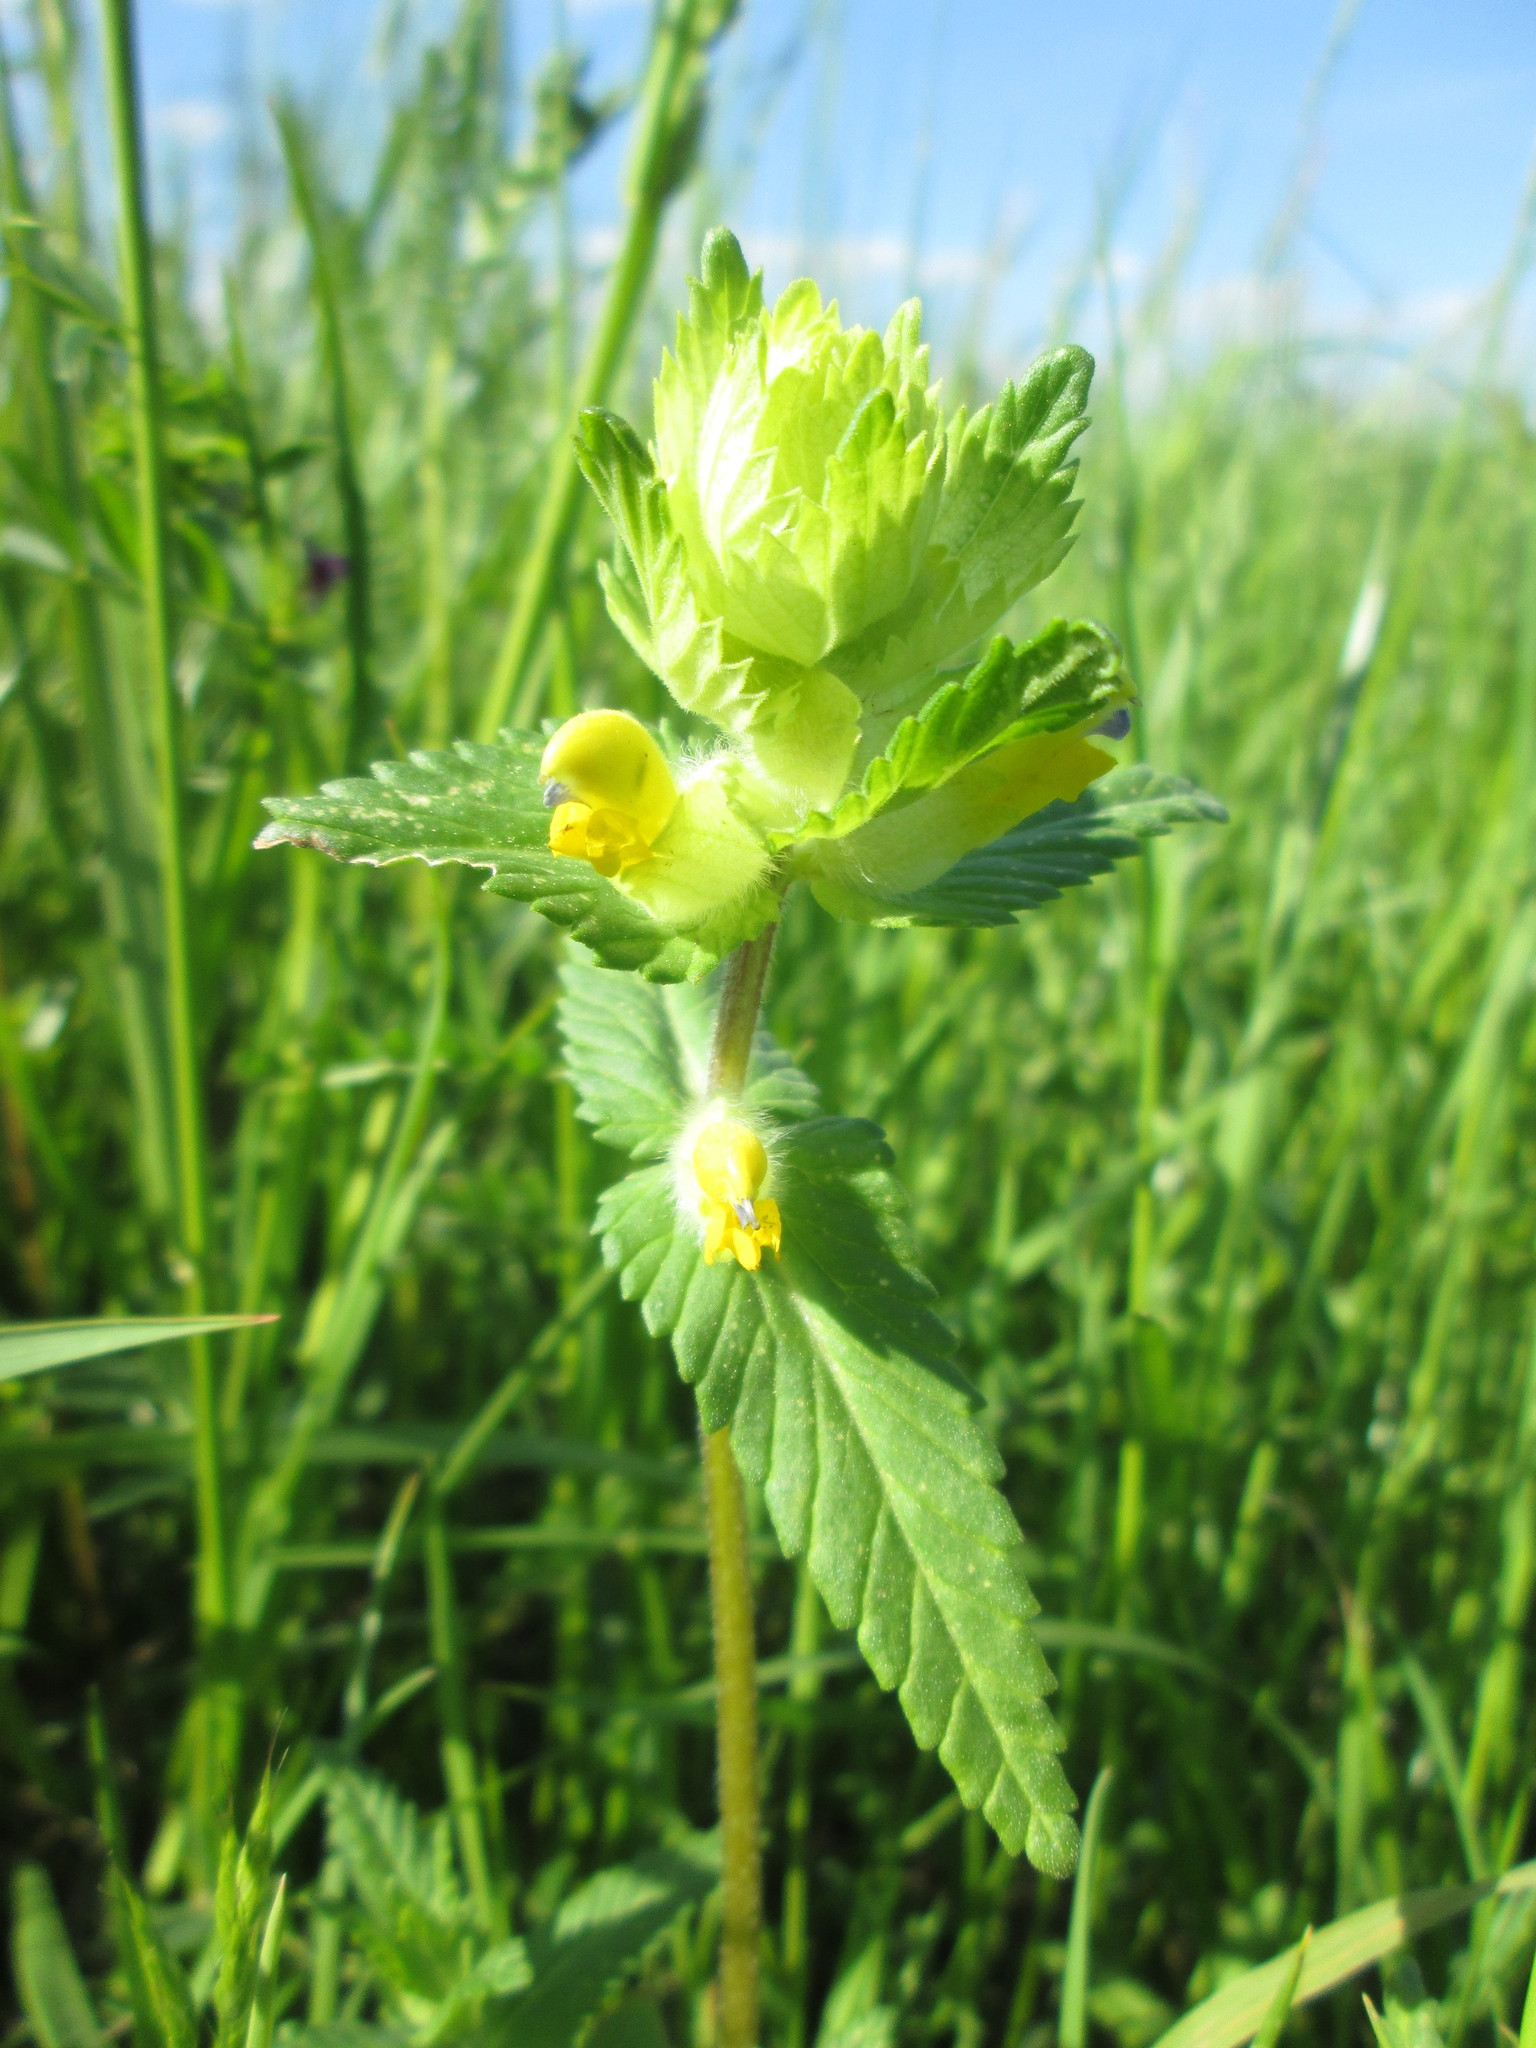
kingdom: Plantae
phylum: Tracheophyta
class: Magnoliopsida
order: Lamiales
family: Orobanchaceae
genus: Rhinanthus
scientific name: Rhinanthus alectorolophus
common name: Greater yellow-rattle
